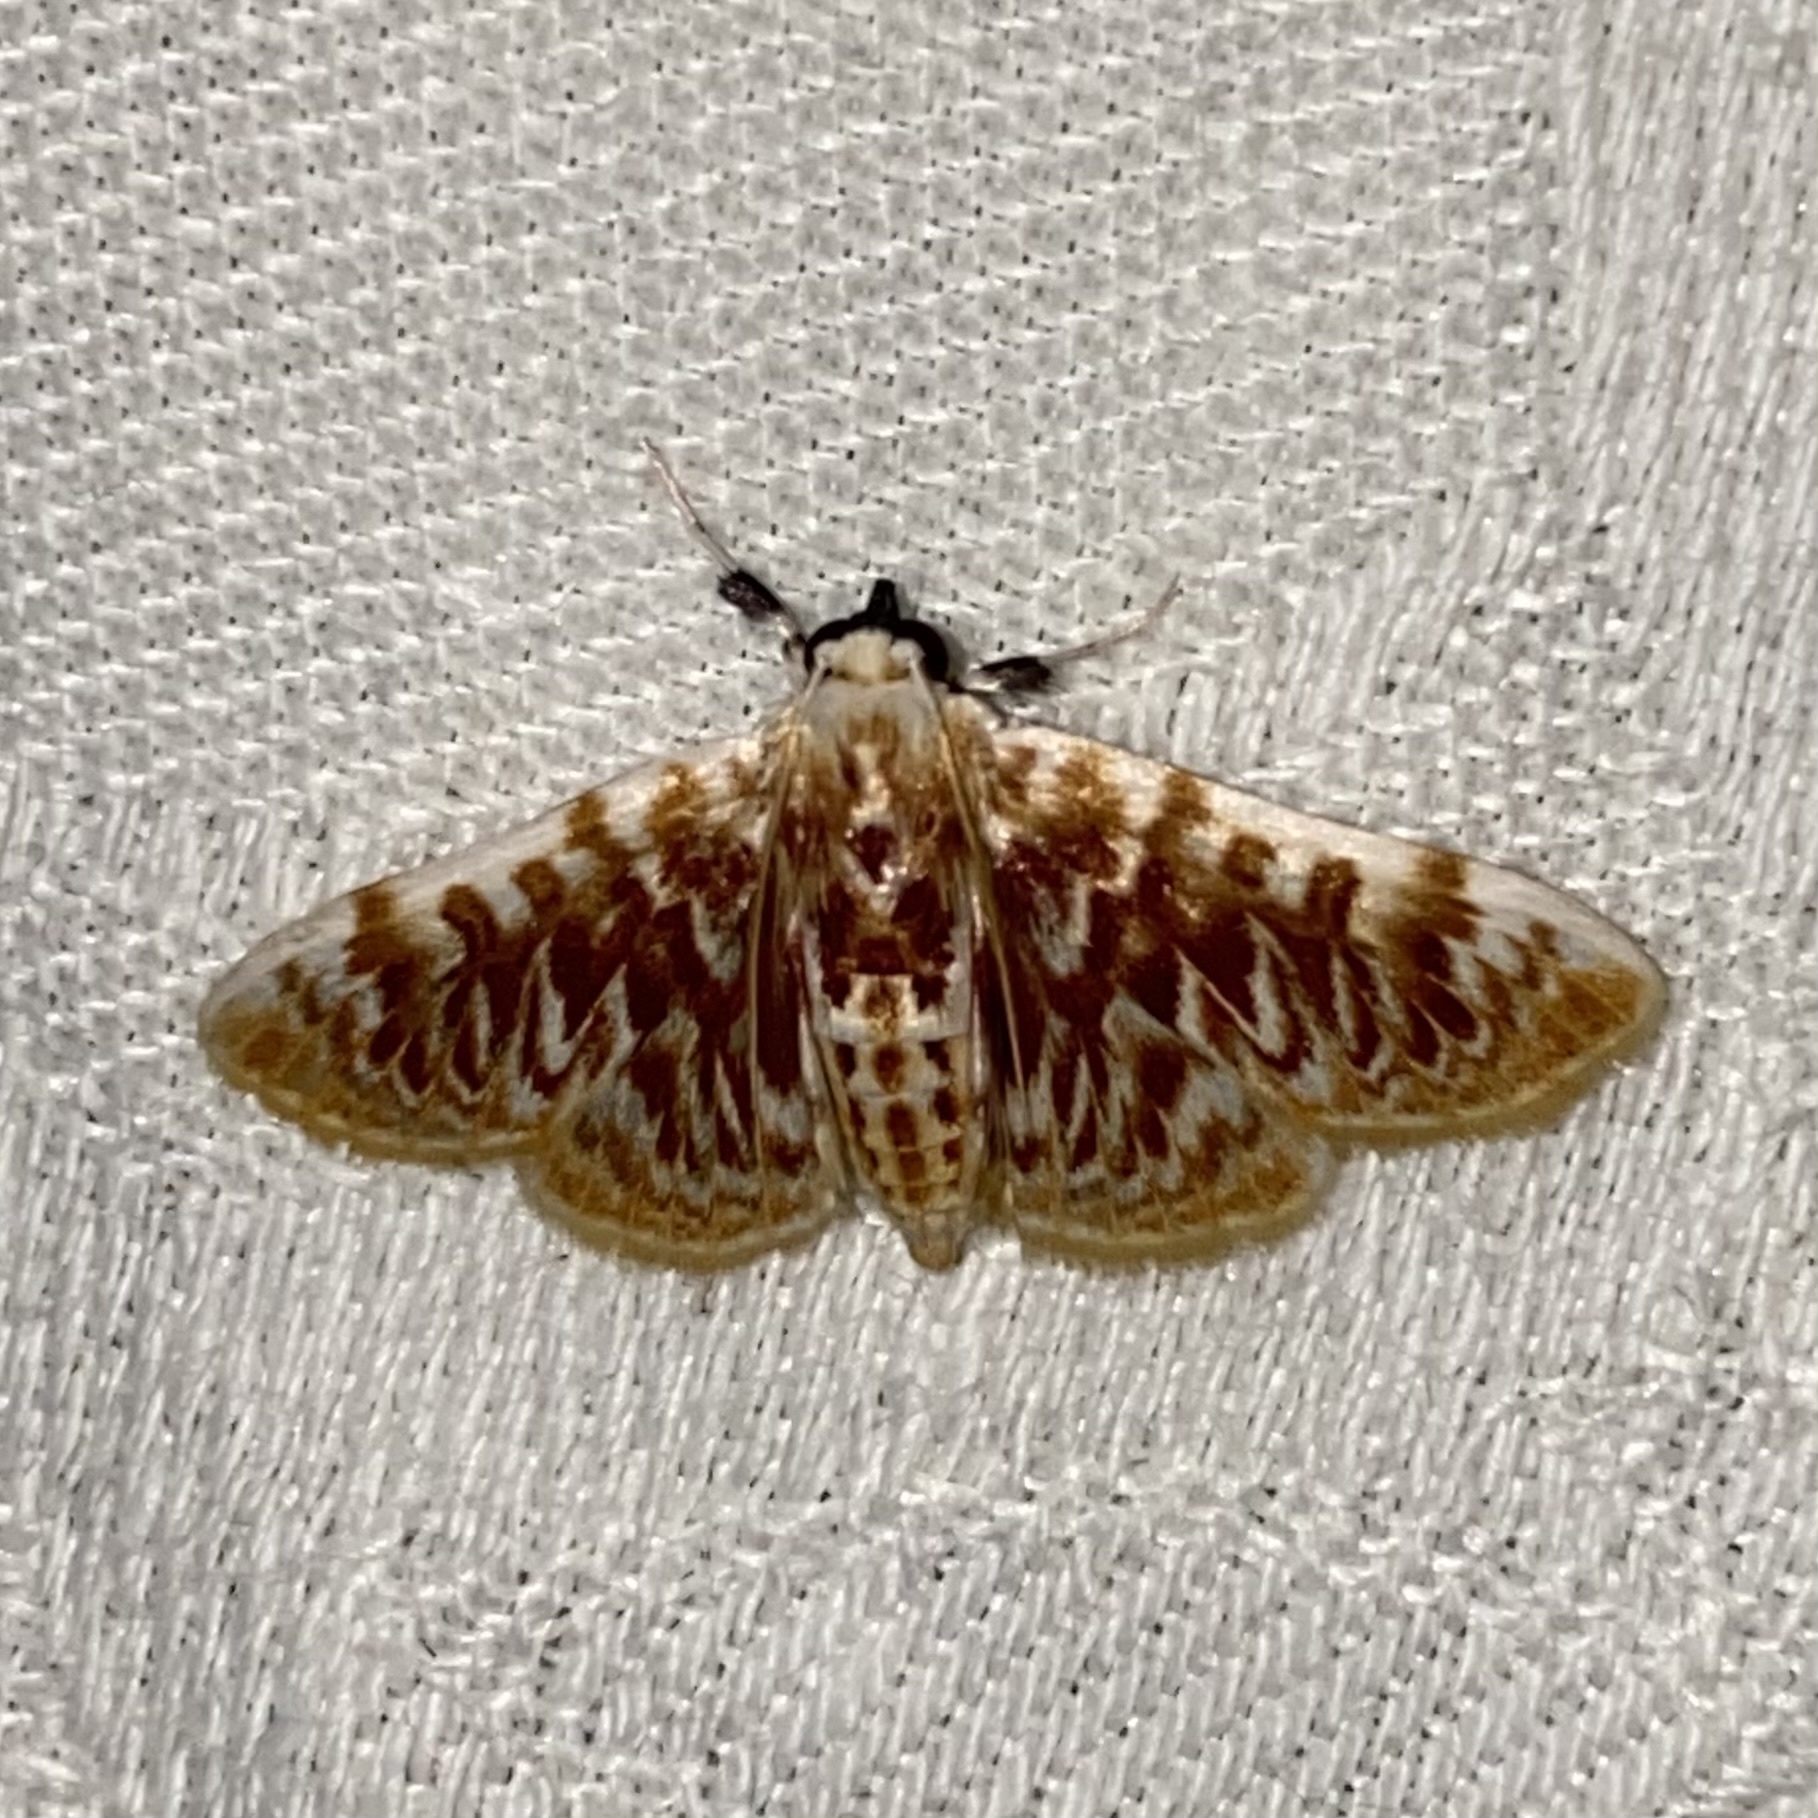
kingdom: Animalia
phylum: Arthropoda
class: Insecta
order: Lepidoptera
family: Crambidae
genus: Polygrammodes
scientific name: Polygrammodes sanguinalis
